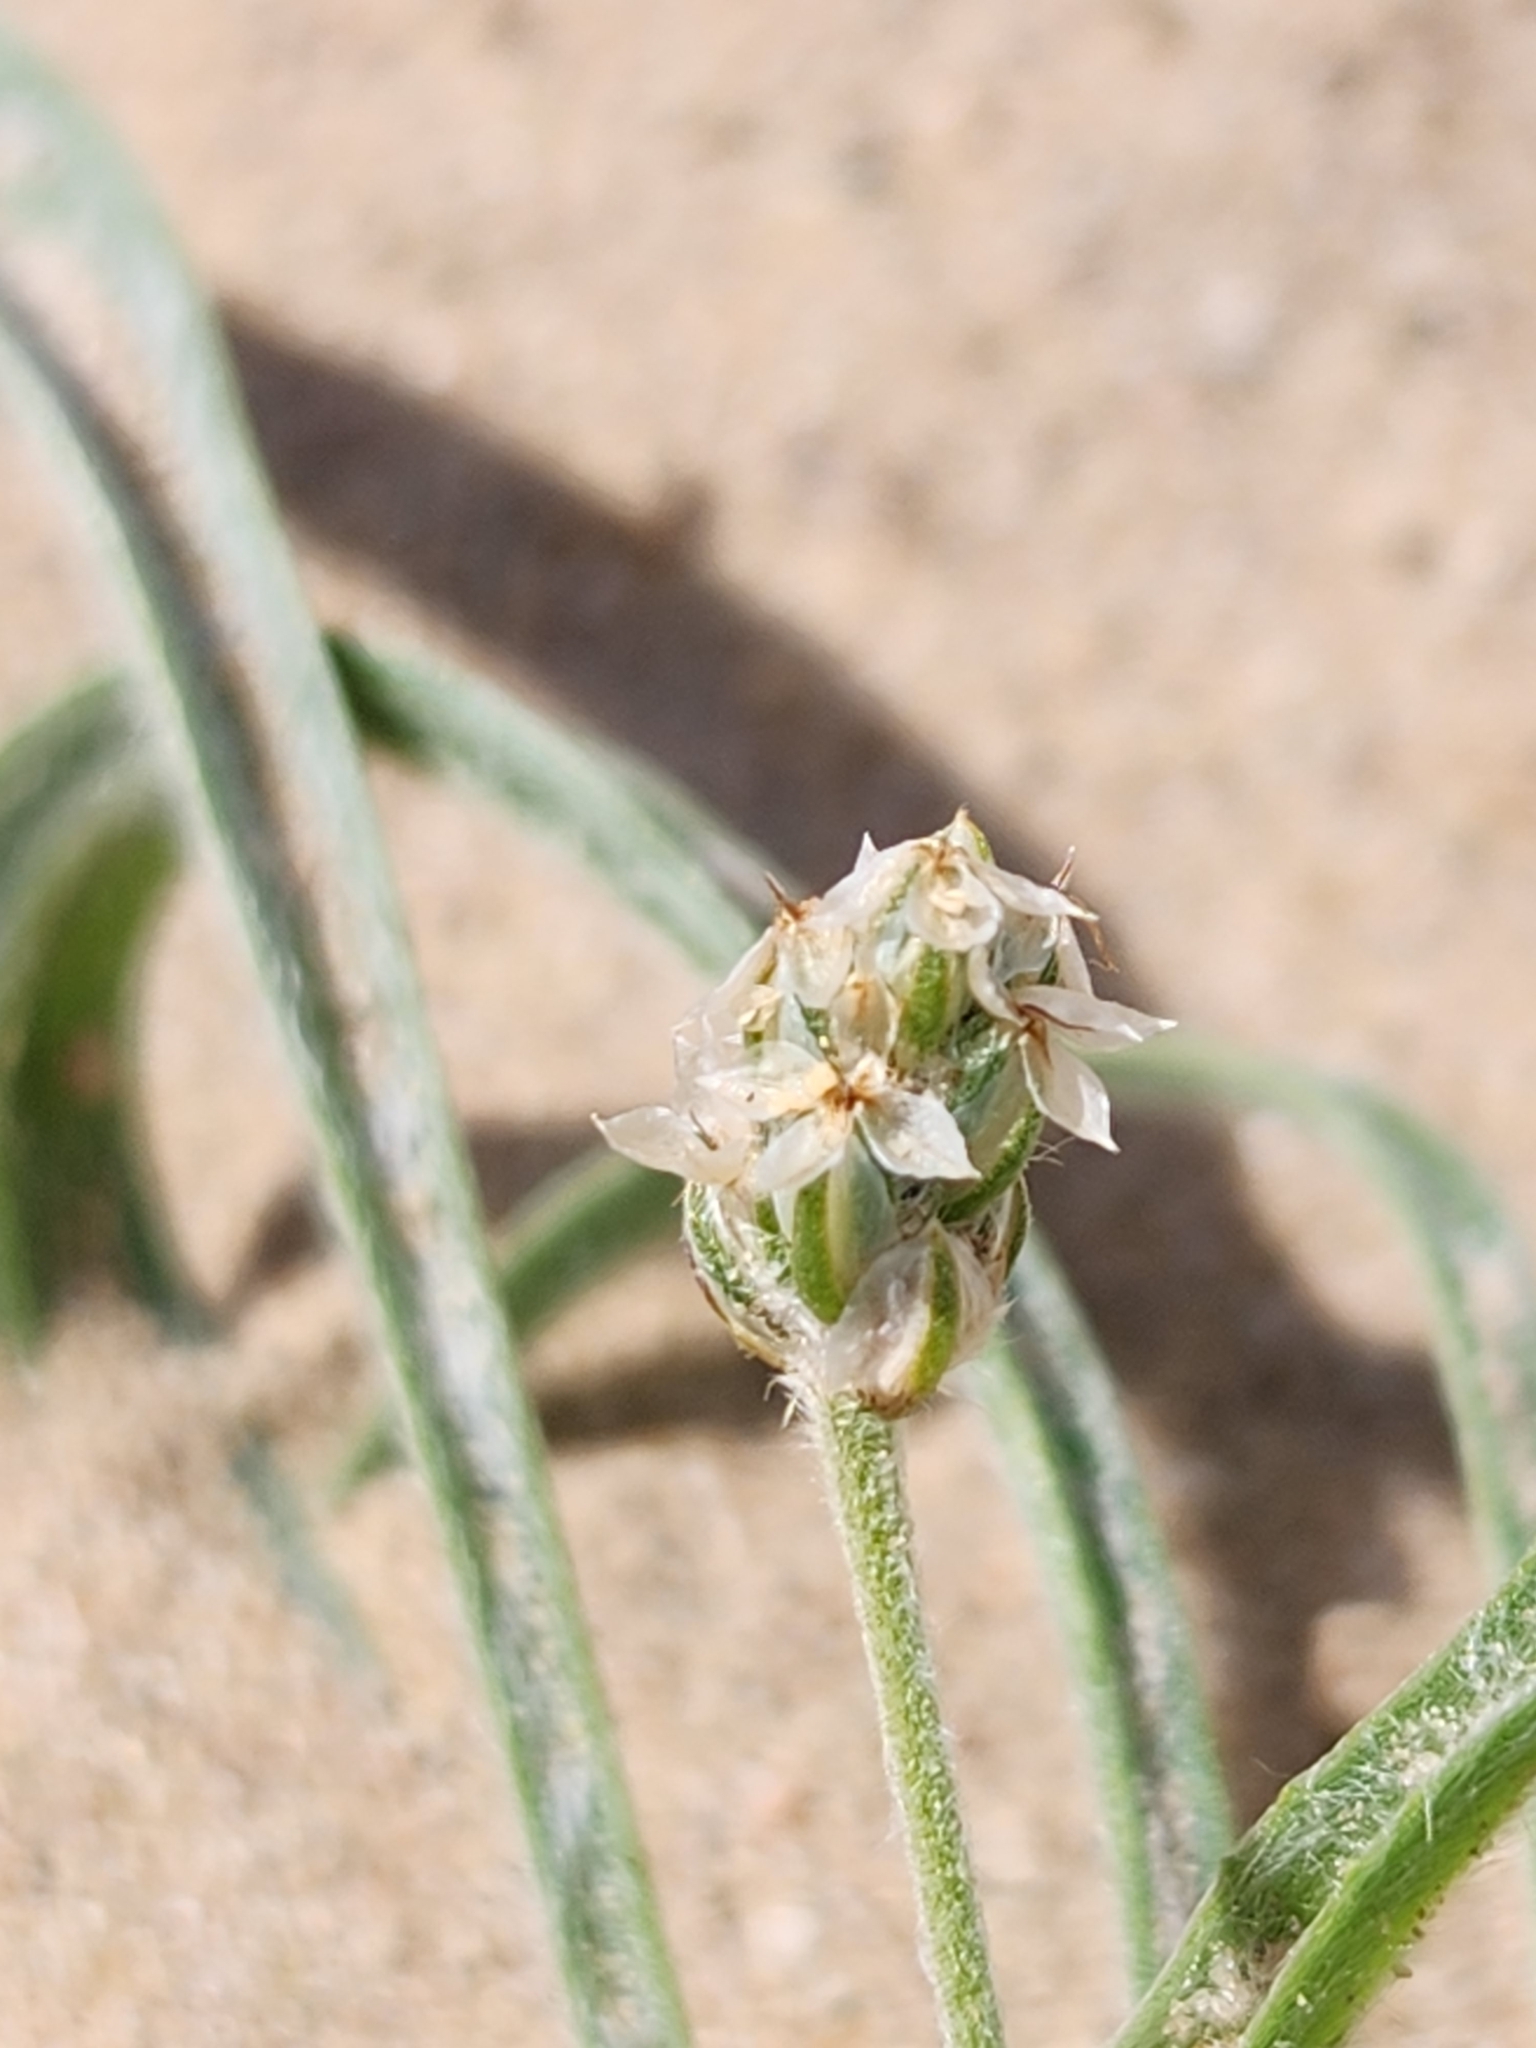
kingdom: Plantae
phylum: Tracheophyta
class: Magnoliopsida
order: Lamiales
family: Plantaginaceae
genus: Plantago
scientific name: Plantago ovata
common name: Blond plantain
